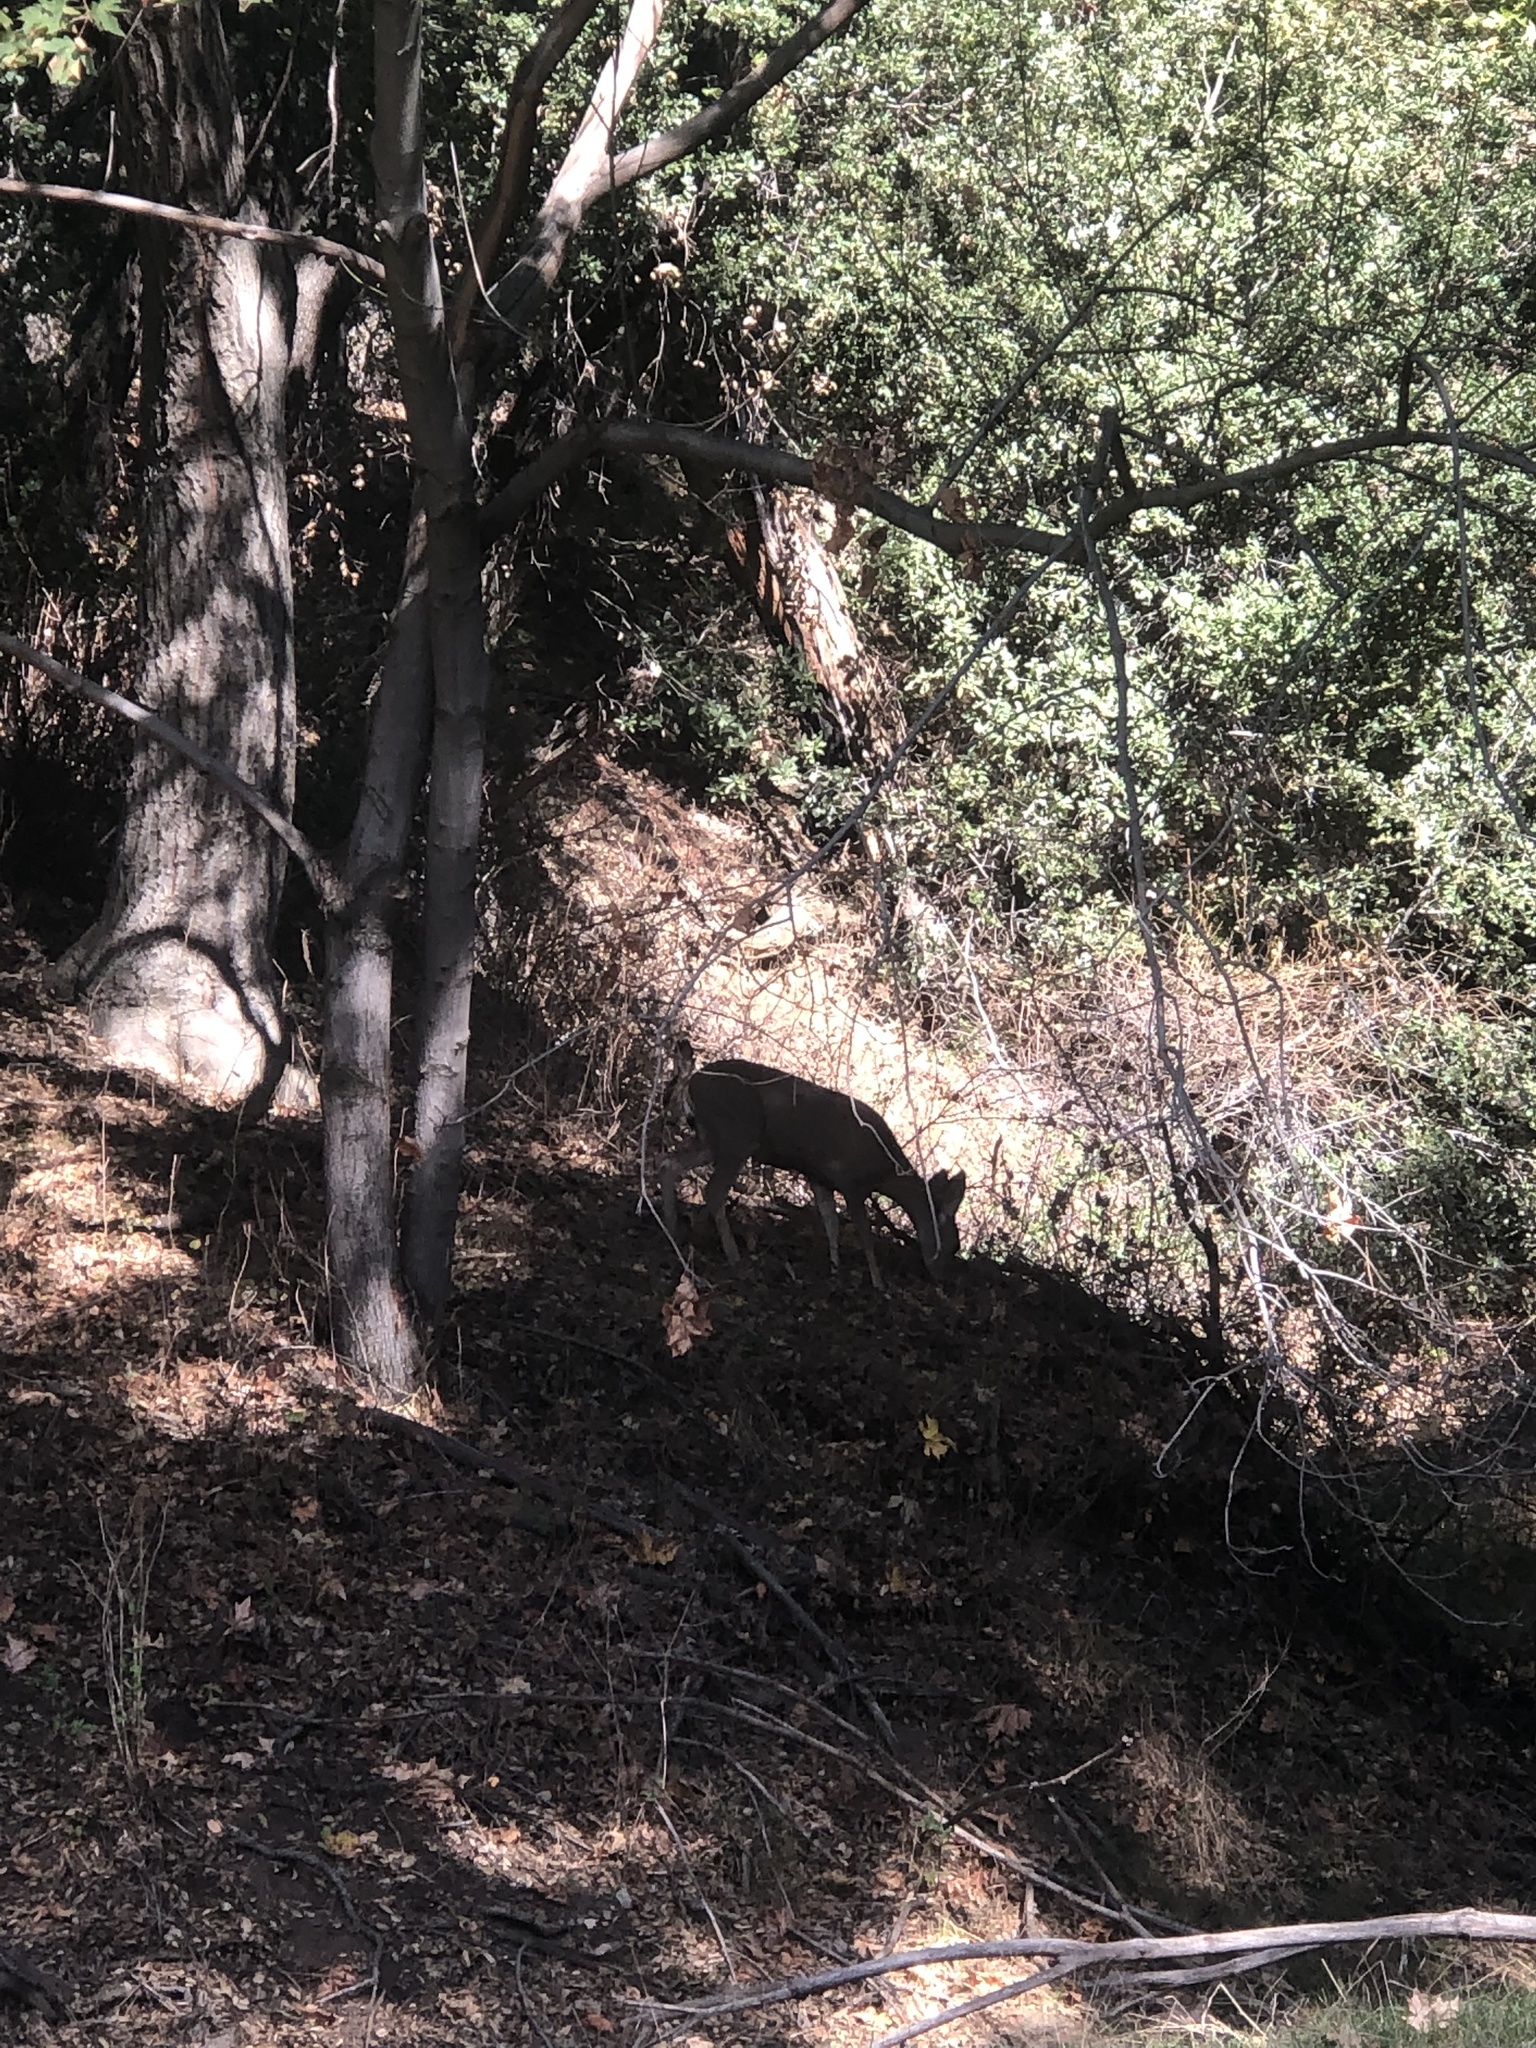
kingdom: Animalia
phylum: Chordata
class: Mammalia
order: Artiodactyla
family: Cervidae
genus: Odocoileus
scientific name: Odocoileus hemionus
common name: Mule deer
